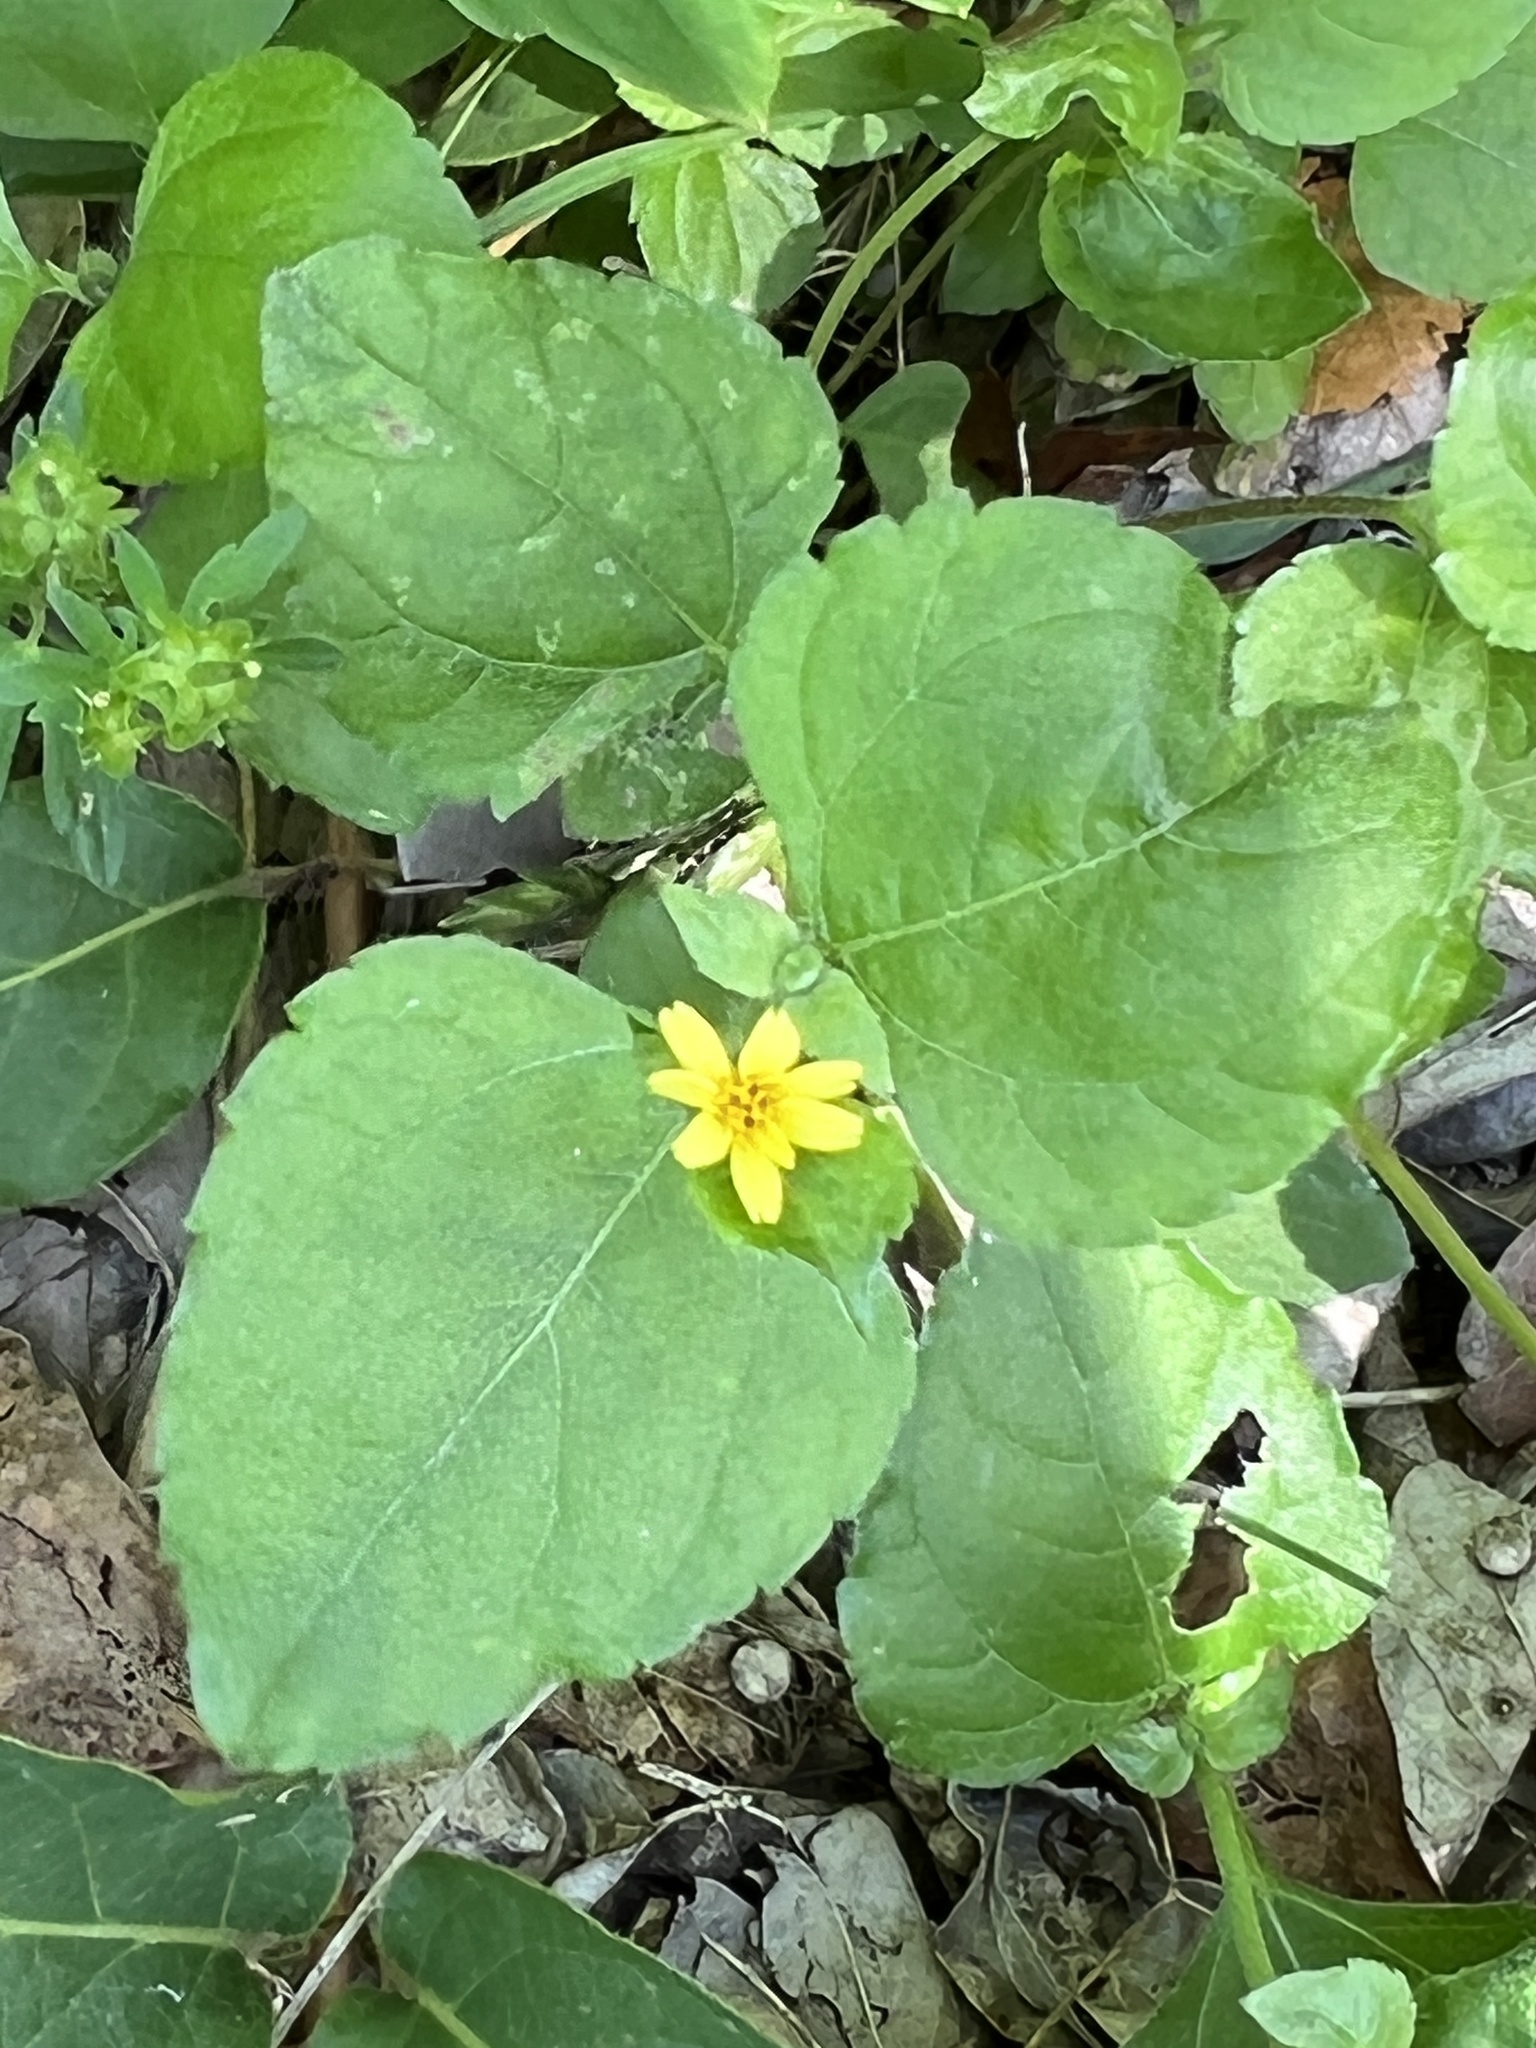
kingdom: Plantae
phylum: Tracheophyta
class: Magnoliopsida
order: Asterales
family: Asteraceae
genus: Calyptocarpus
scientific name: Calyptocarpus vialis
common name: Straggler daisy
